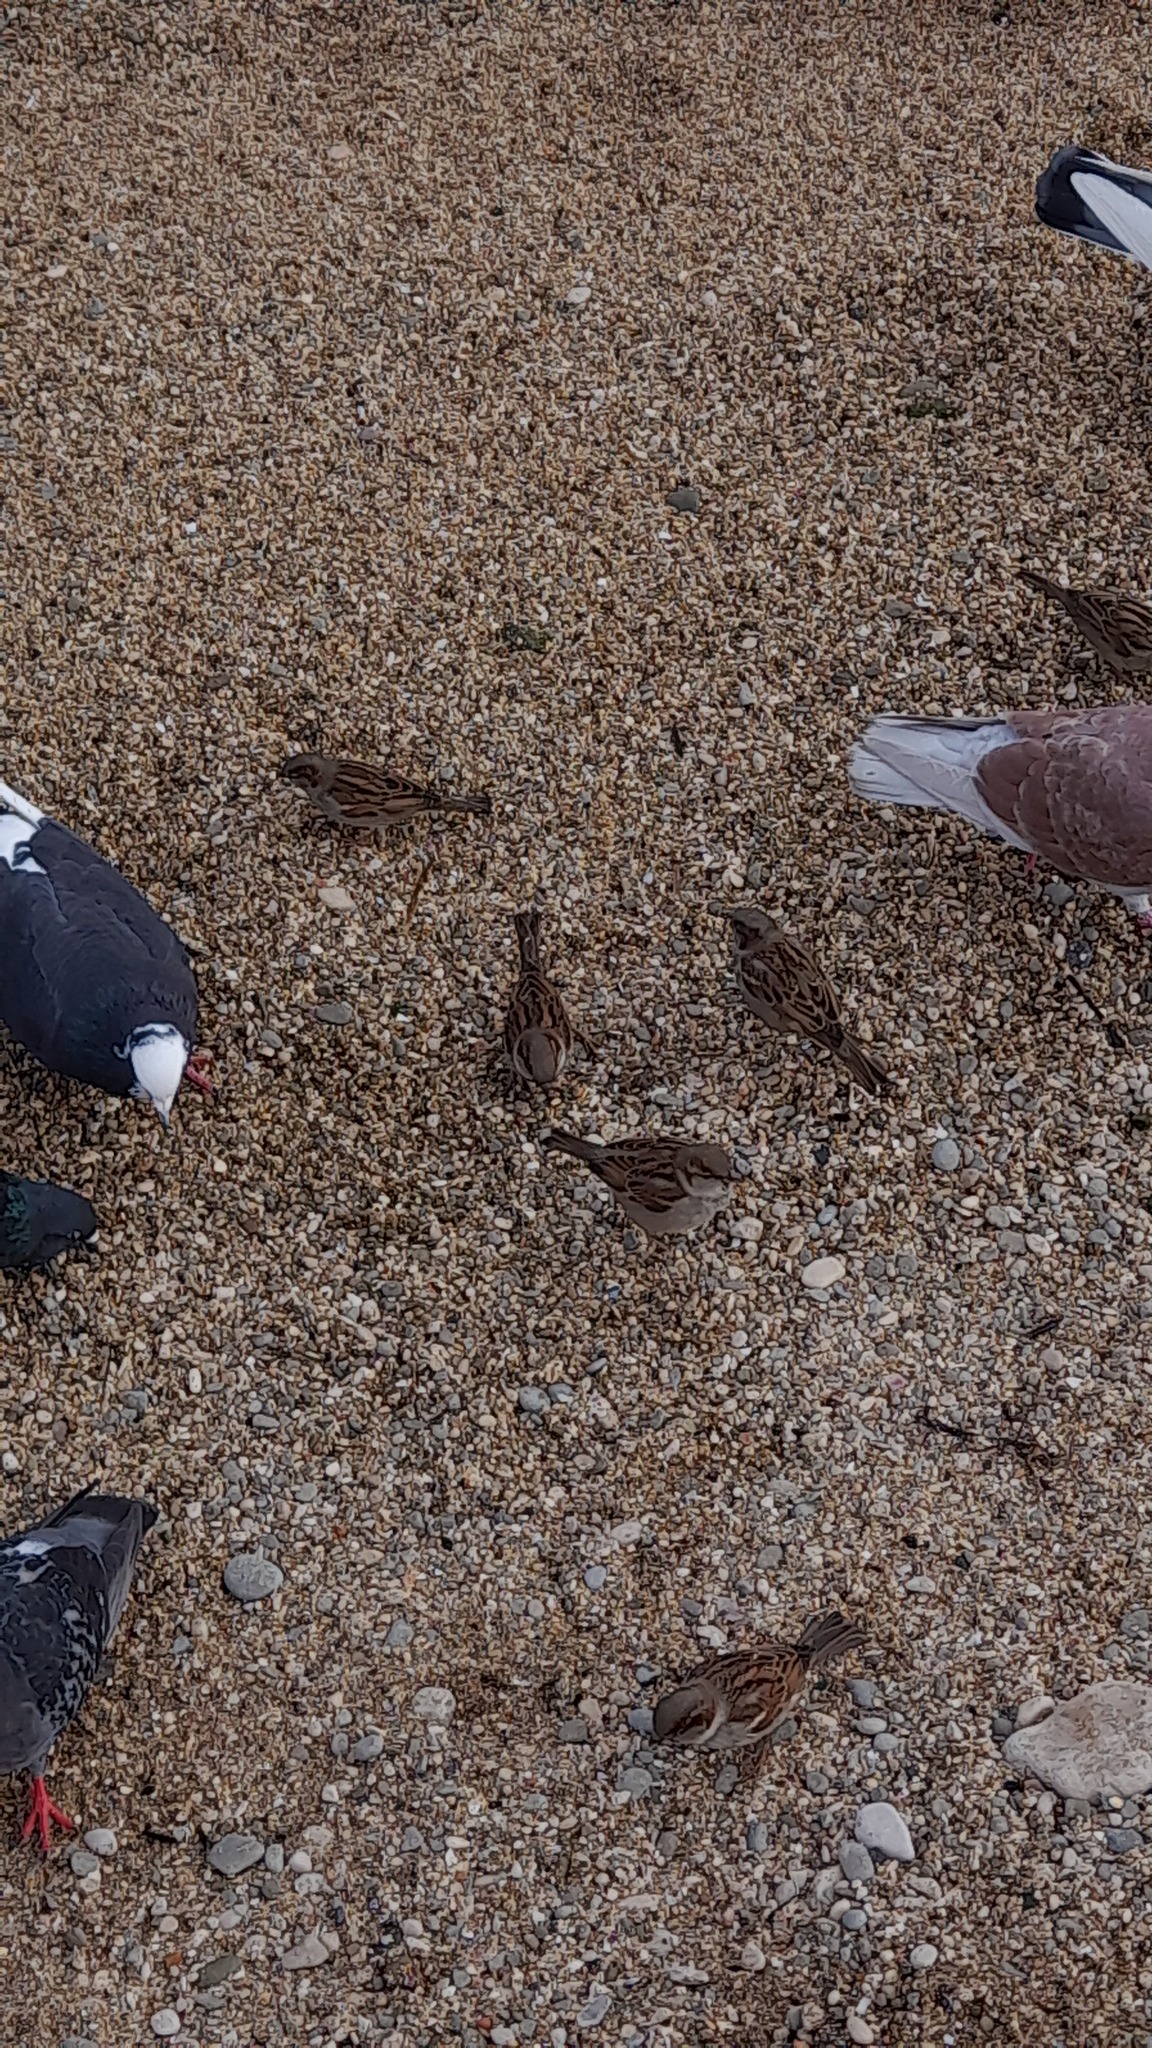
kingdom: Animalia
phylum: Chordata
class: Aves
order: Passeriformes
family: Passeridae
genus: Passer
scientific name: Passer domesticus
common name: House sparrow
